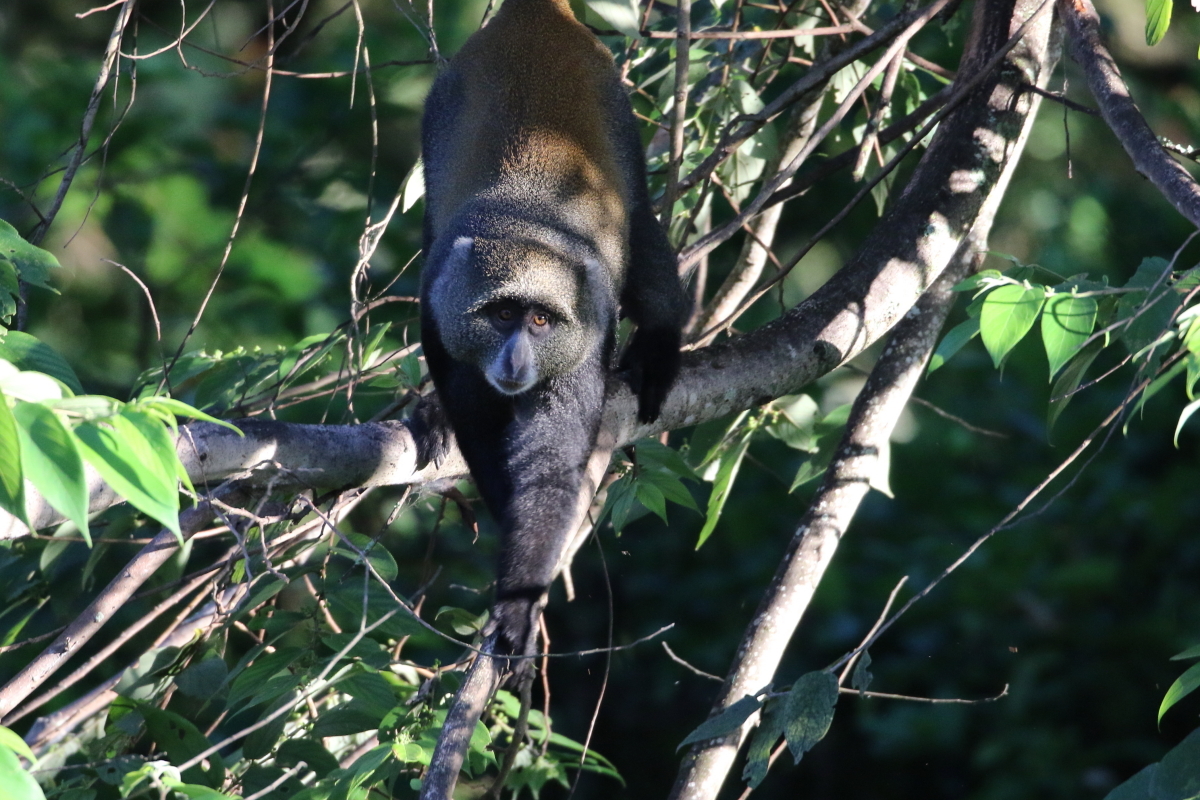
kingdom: Animalia
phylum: Chordata
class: Mammalia
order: Primates
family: Cercopithecidae
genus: Cercopithecus
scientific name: Cercopithecus mitis
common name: Blue monkey
